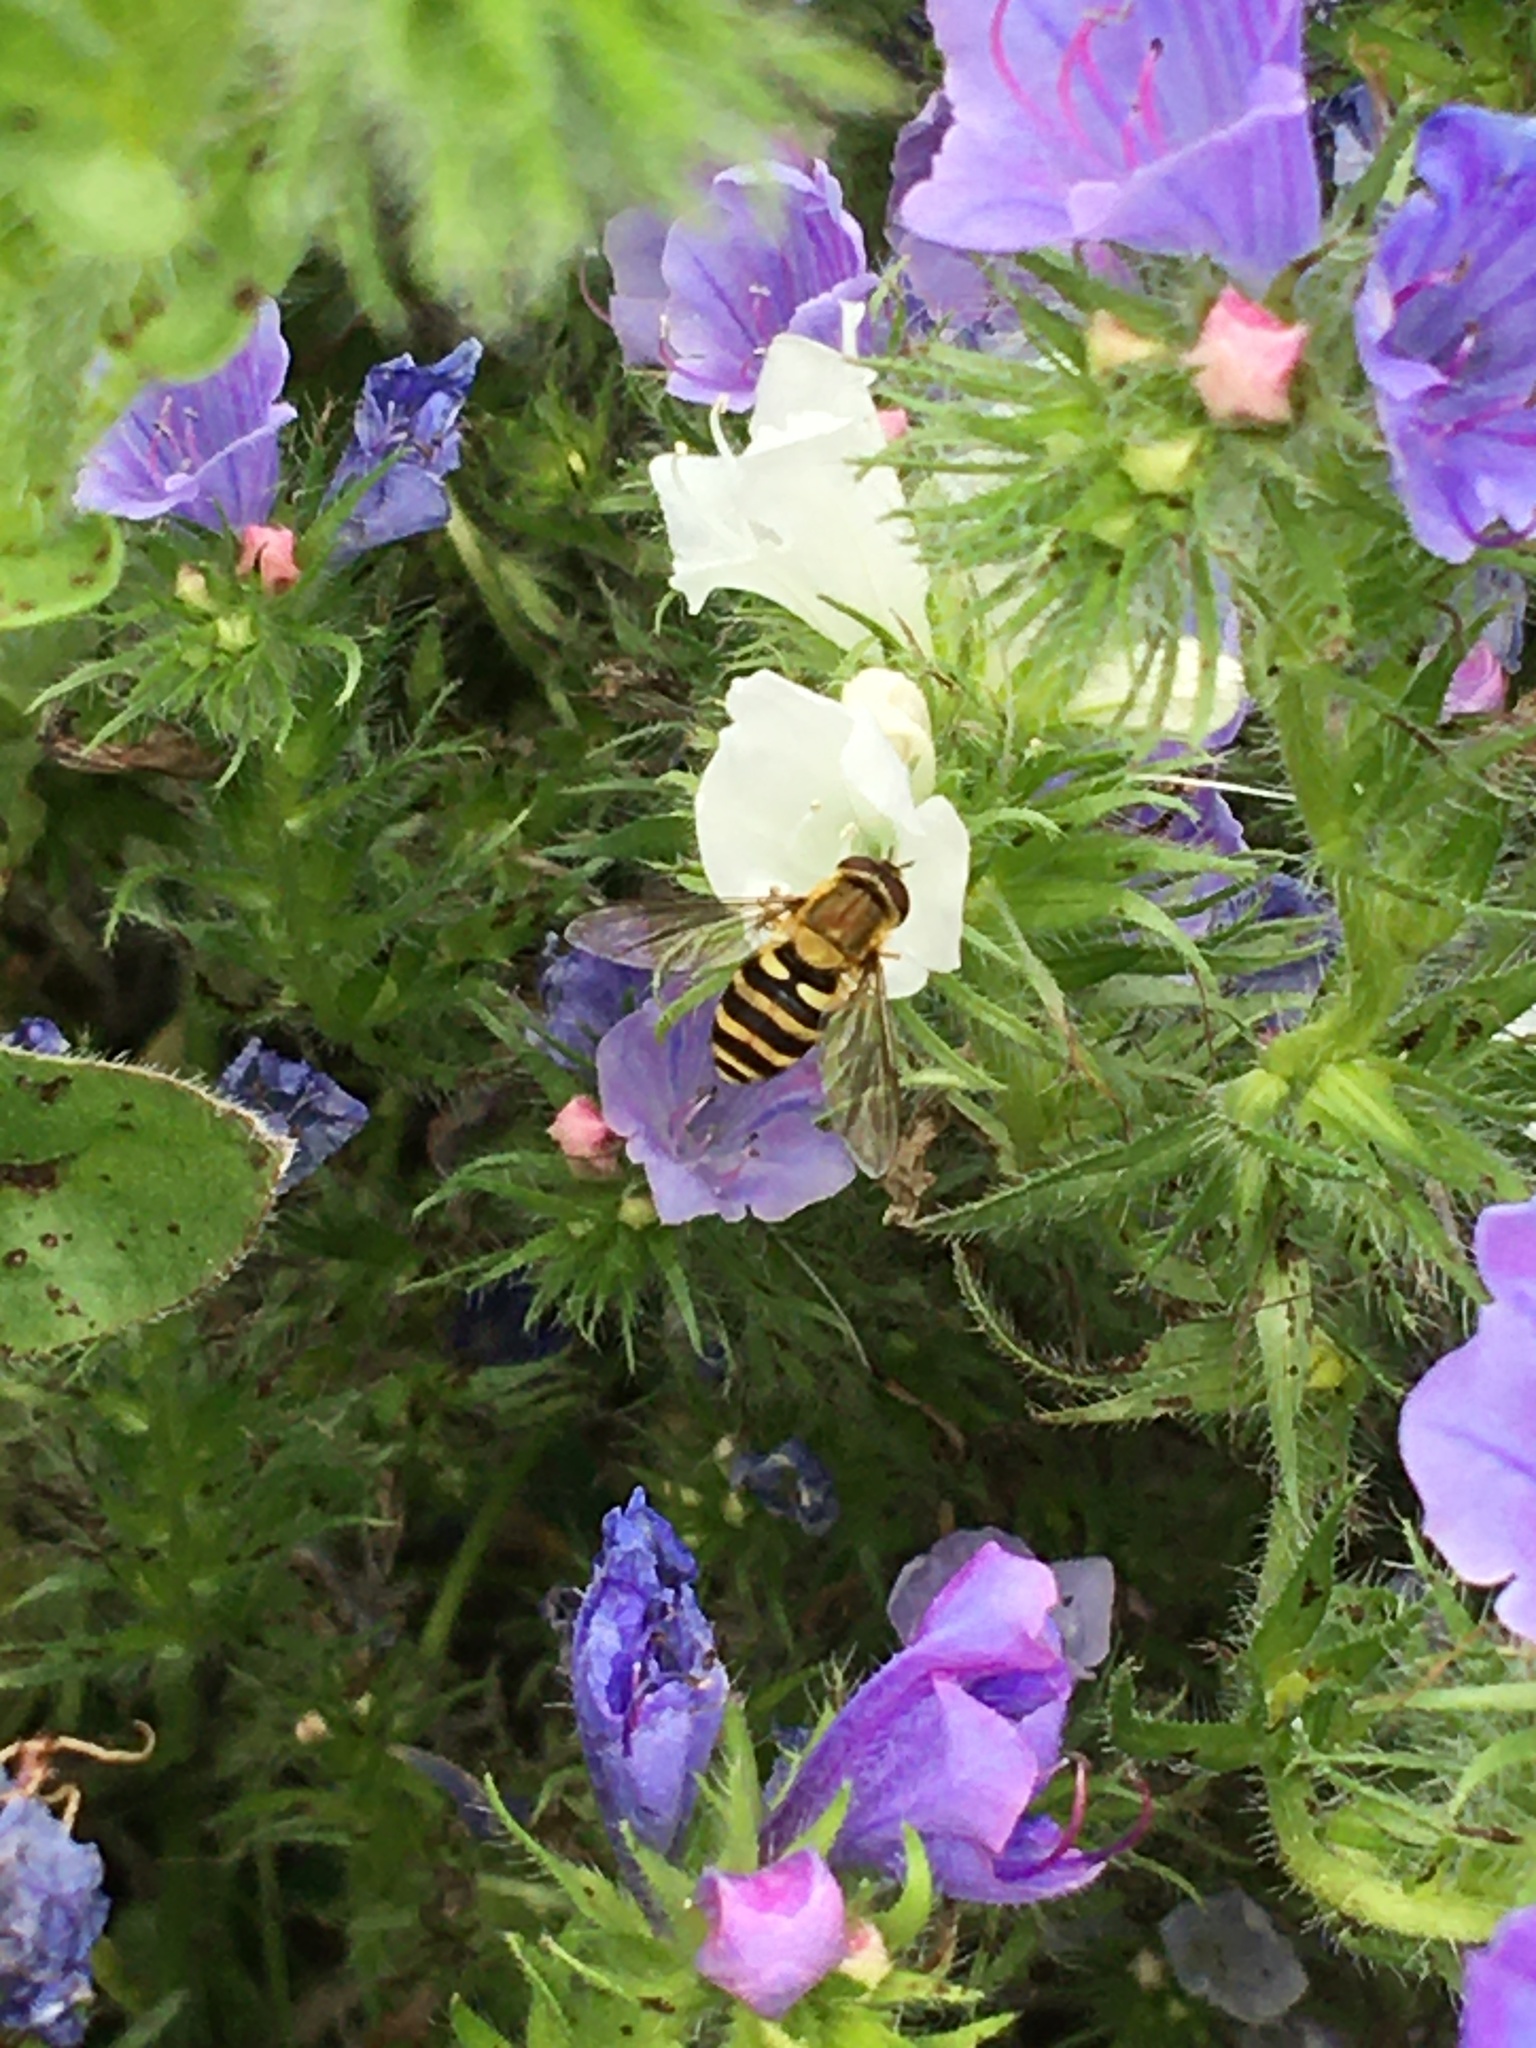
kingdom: Animalia
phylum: Arthropoda
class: Insecta
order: Diptera
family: Syrphidae
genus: Syrphus
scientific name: Syrphus
